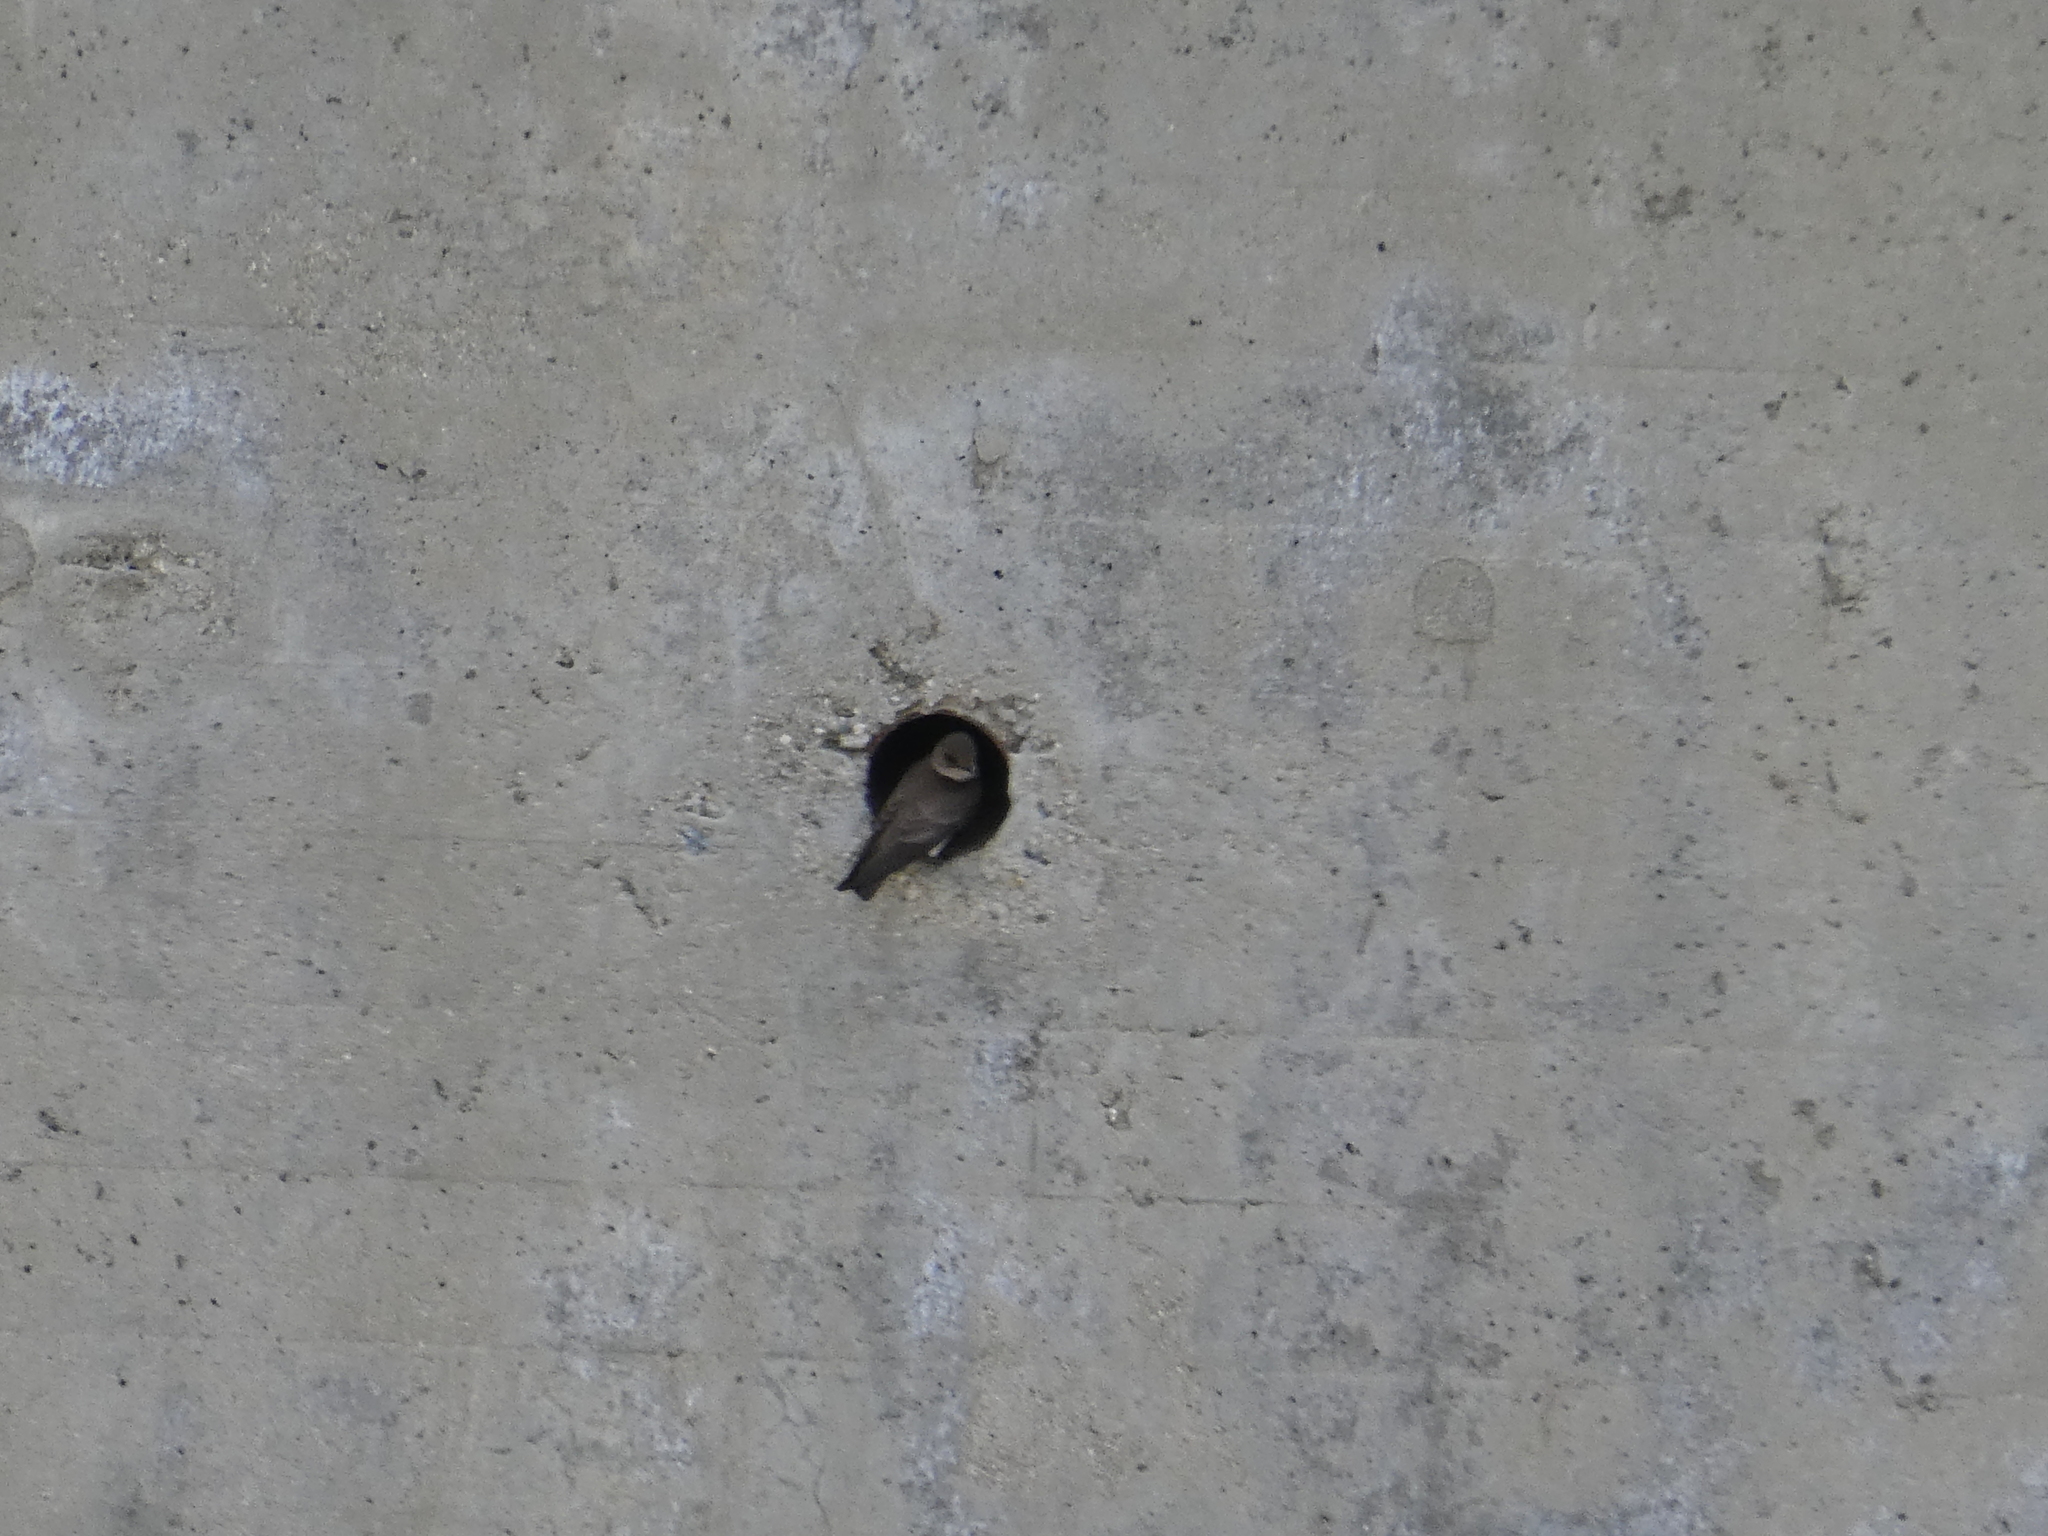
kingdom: Animalia
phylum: Chordata
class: Aves
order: Passeriformes
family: Hirundinidae
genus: Stelgidopteryx
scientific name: Stelgidopteryx serripennis
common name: Northern rough-winged swallow
